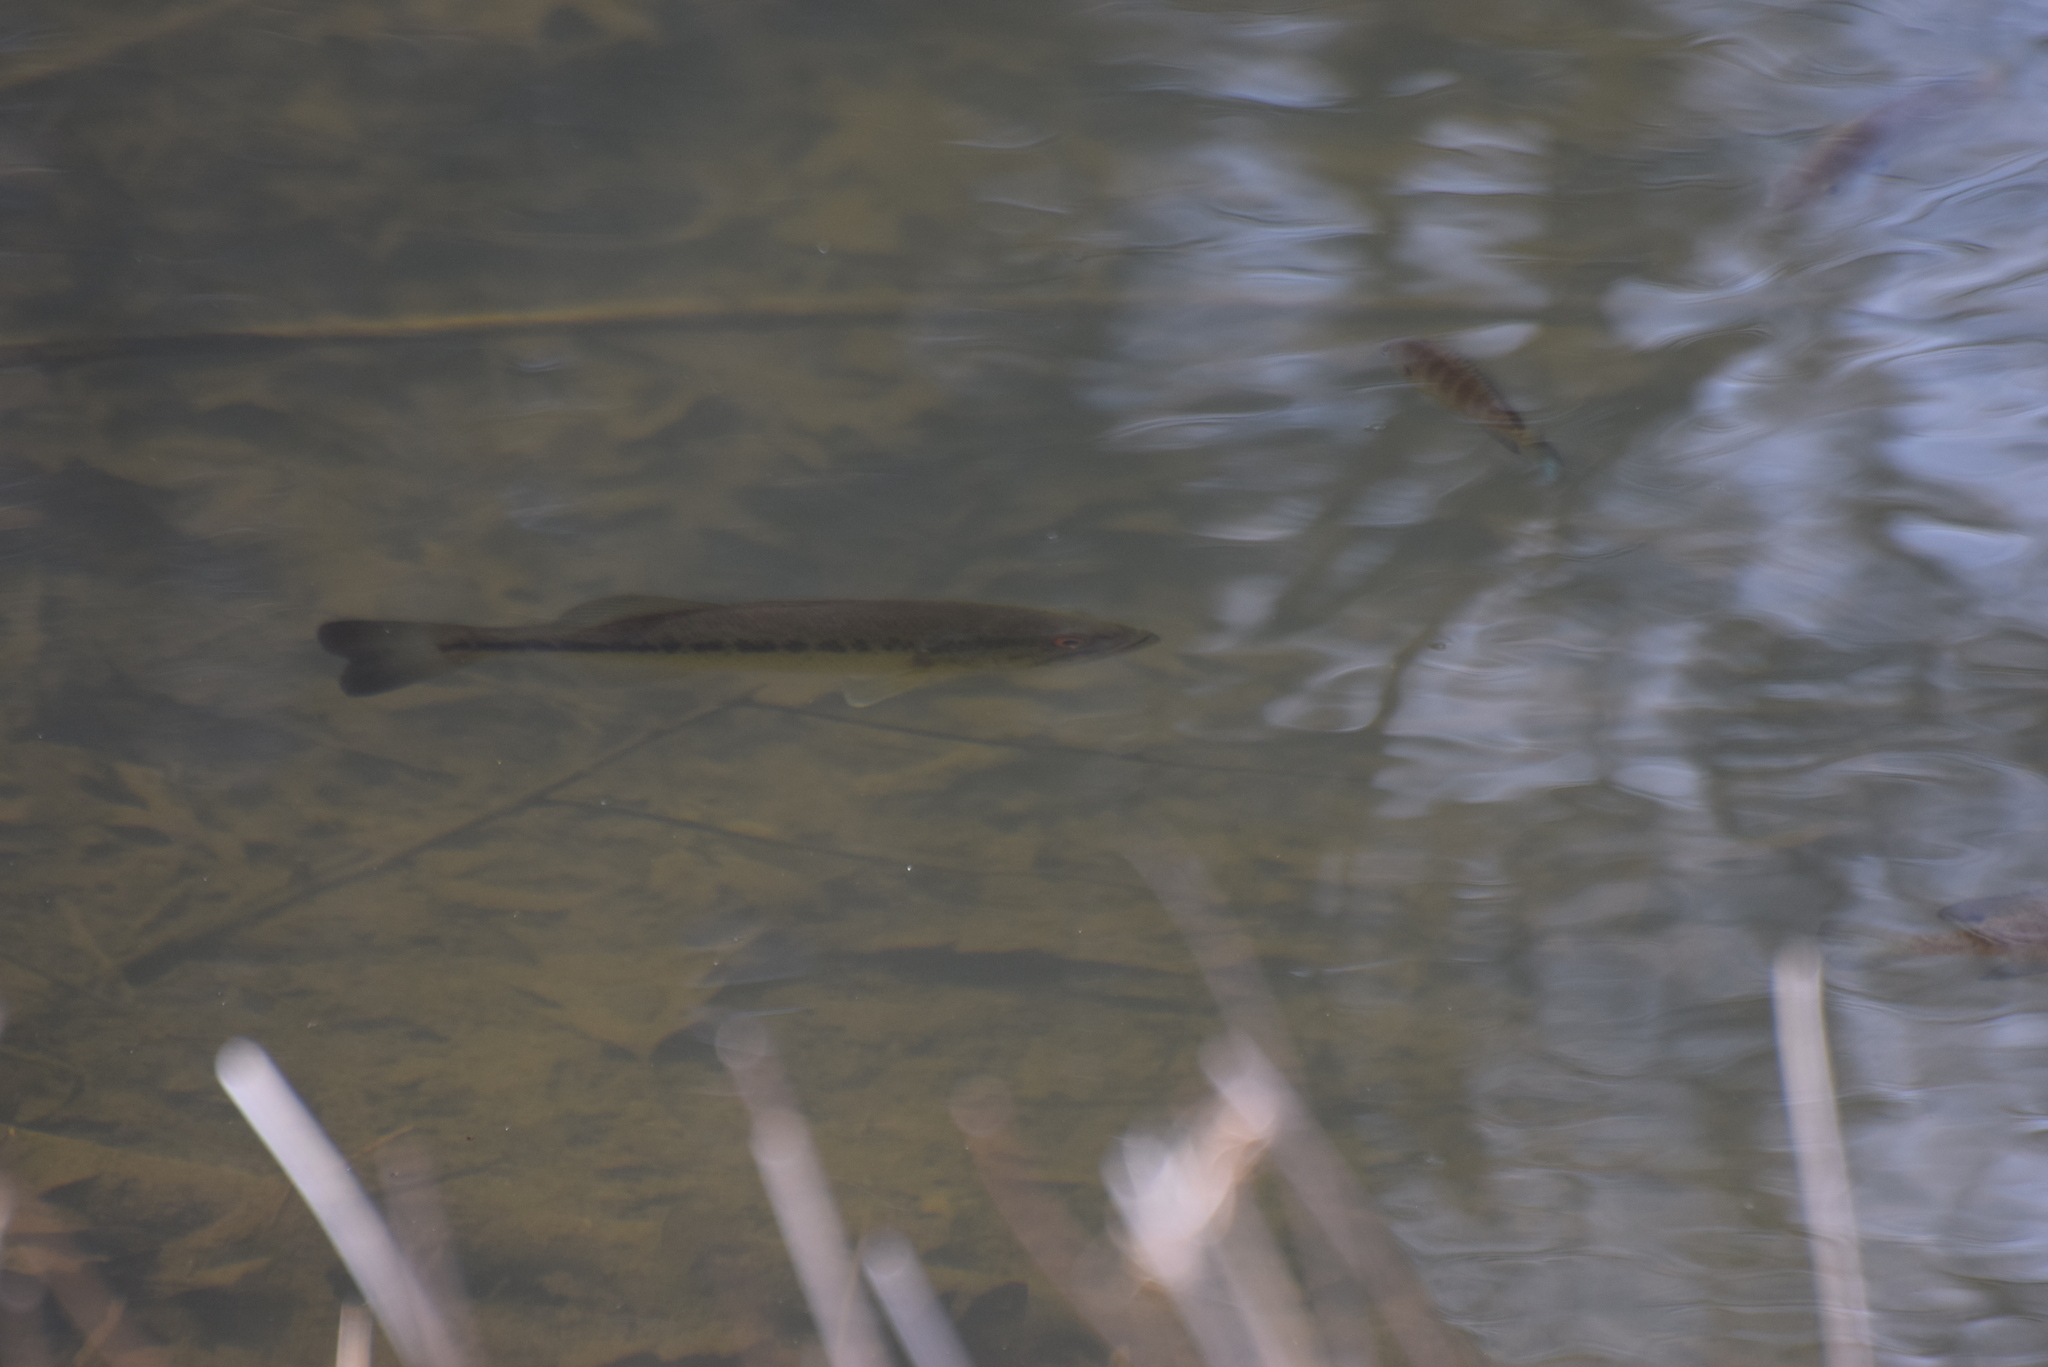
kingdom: Animalia
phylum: Chordata
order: Perciformes
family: Centrarchidae
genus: Micropterus
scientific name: Micropterus
